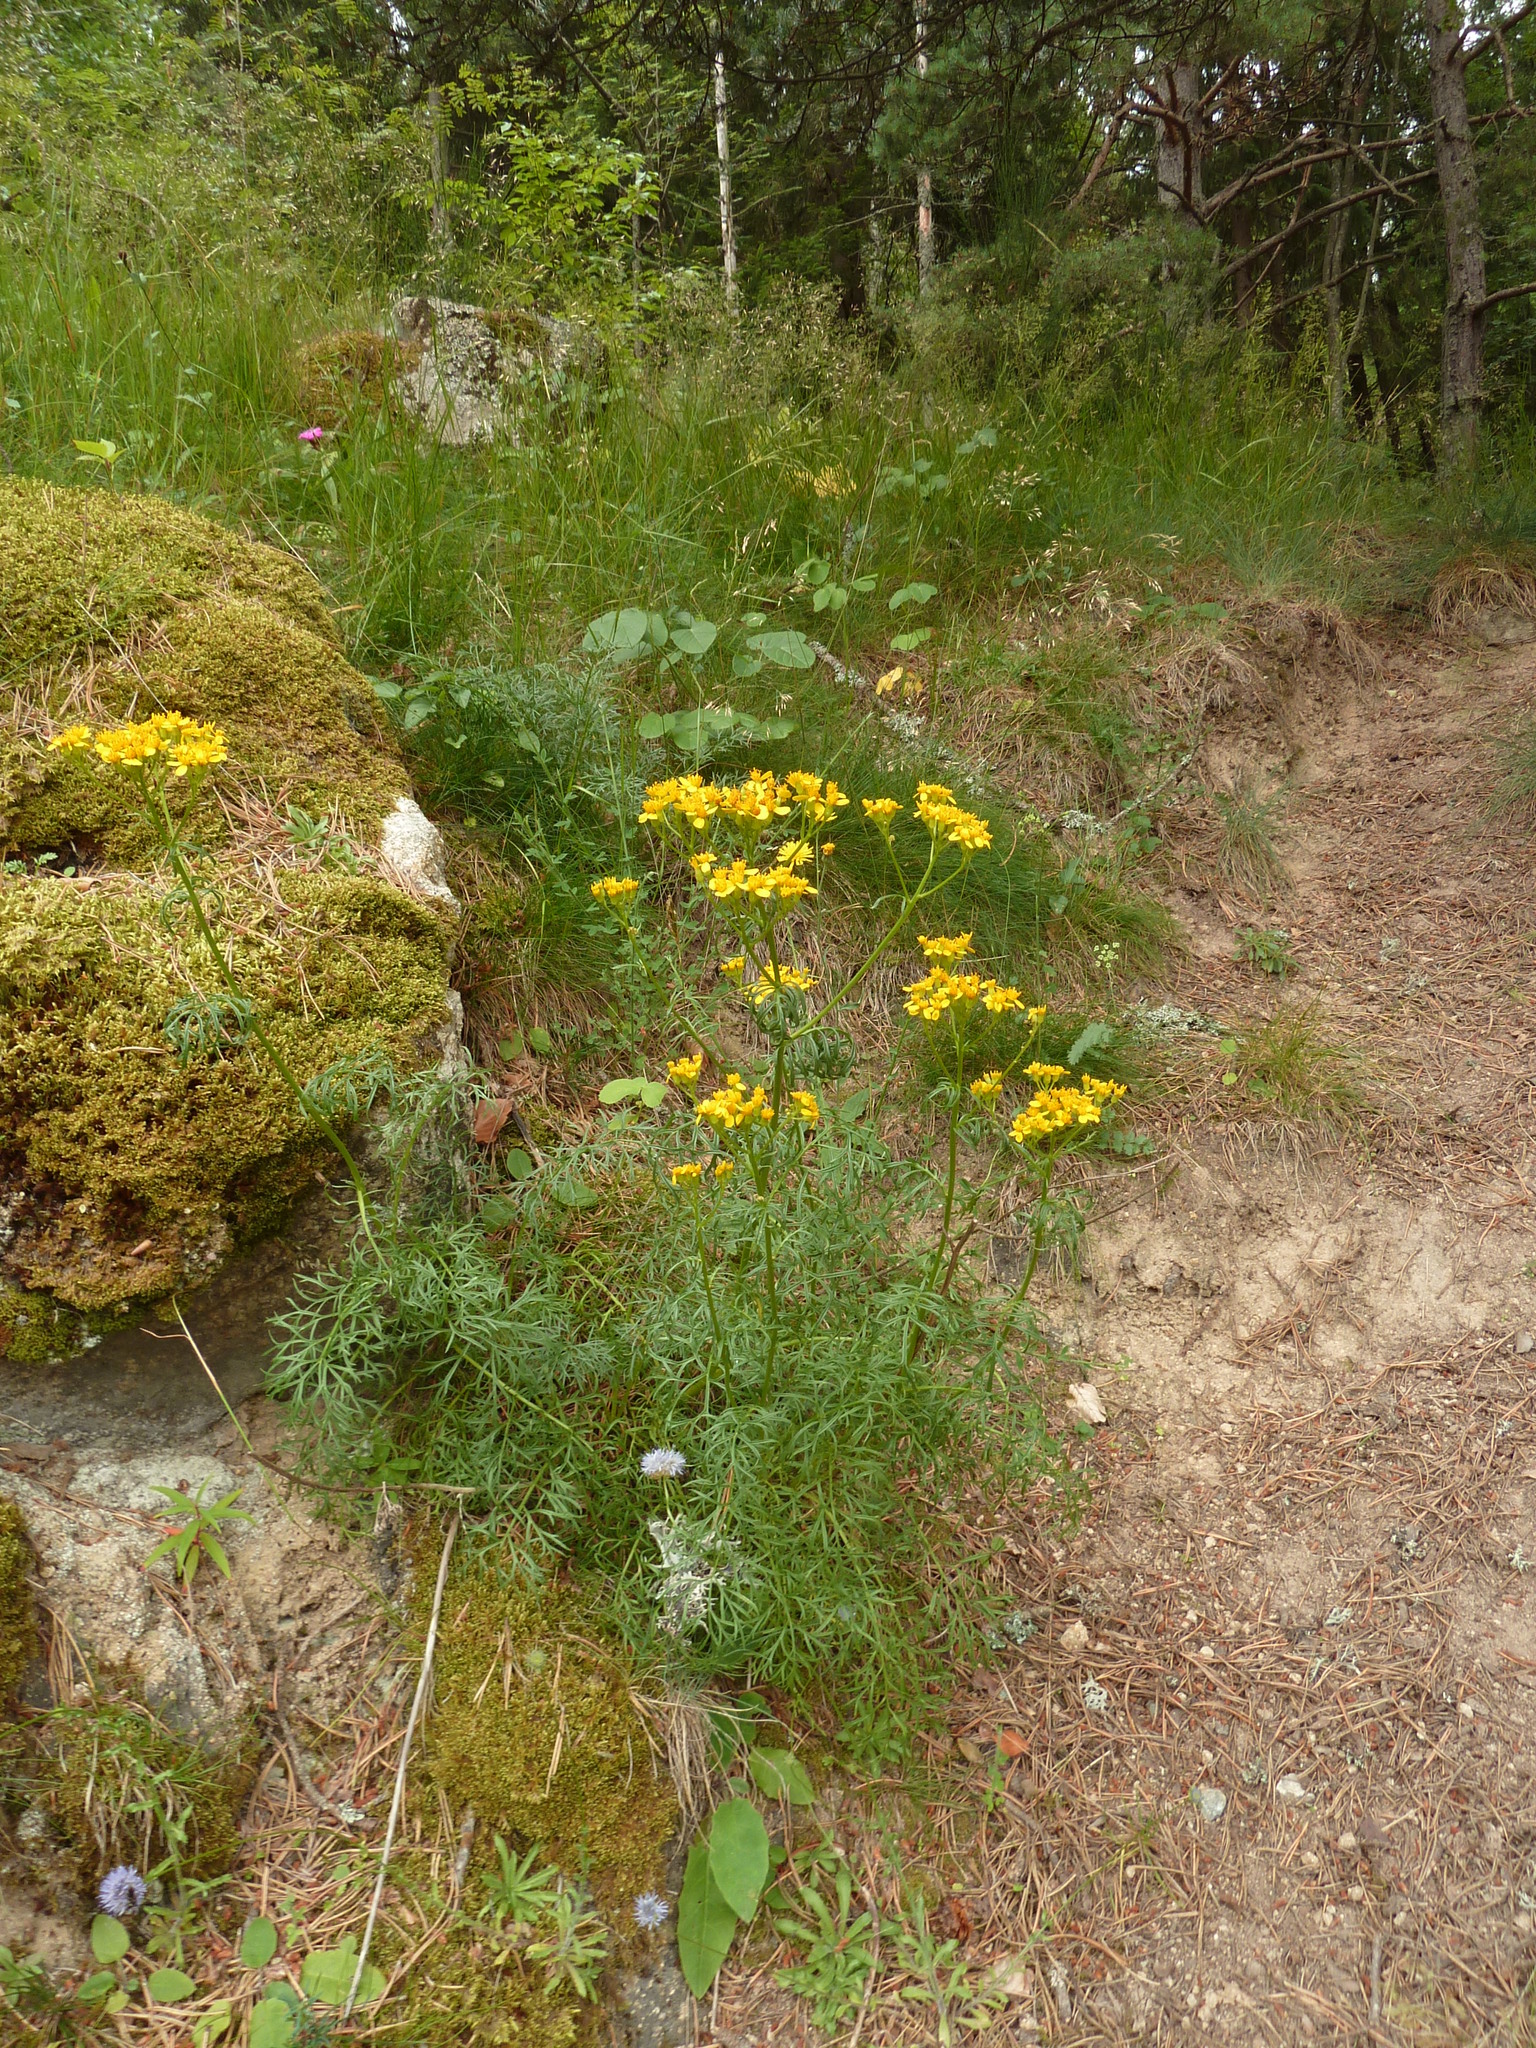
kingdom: Plantae
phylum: Tracheophyta
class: Magnoliopsida
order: Asterales
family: Asteraceae
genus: Jacobaea
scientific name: Jacobaea adonidifolia
